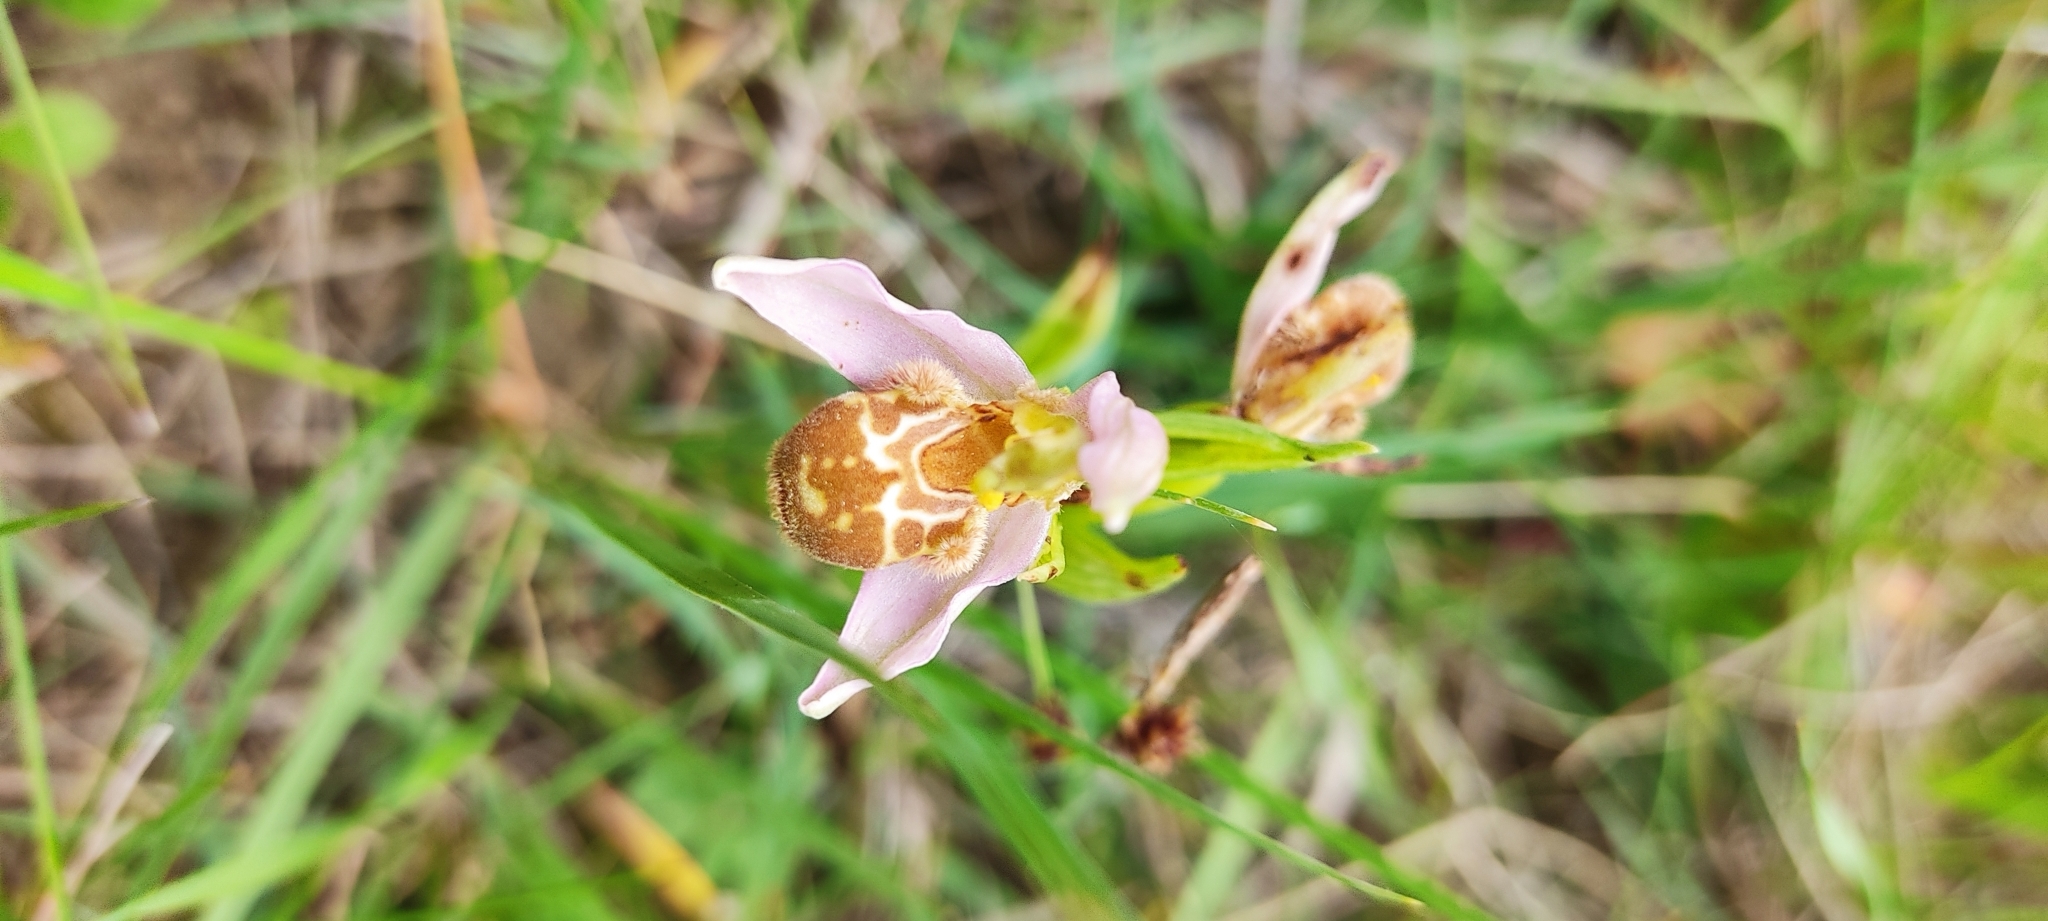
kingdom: Plantae
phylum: Tracheophyta
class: Liliopsida
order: Asparagales
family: Orchidaceae
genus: Ophrys
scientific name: Ophrys apifera
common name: Bee orchid
